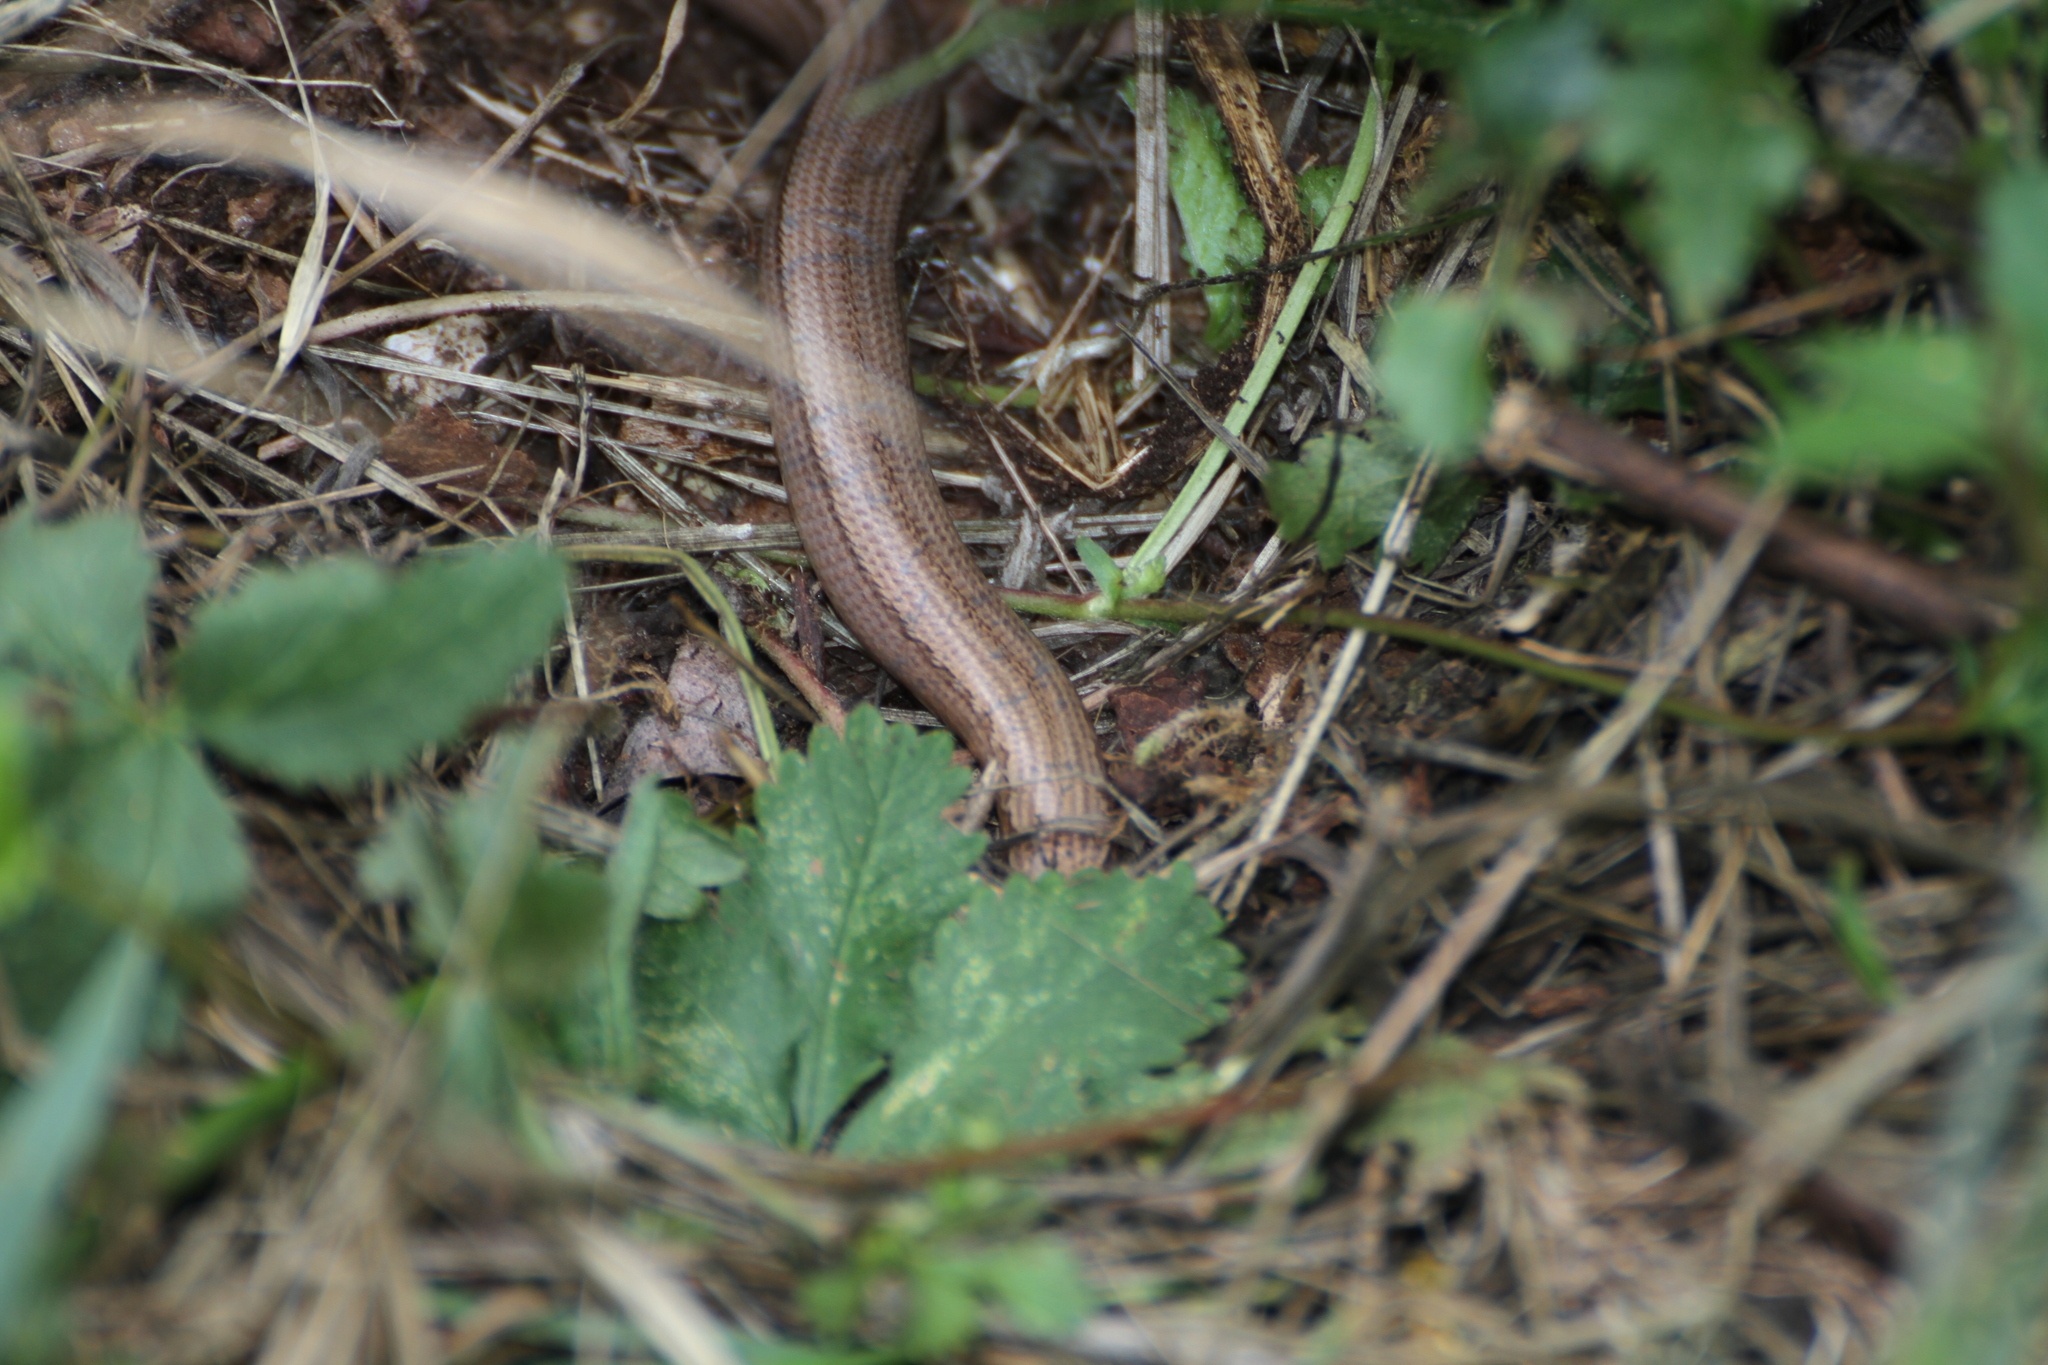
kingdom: Animalia
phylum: Chordata
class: Squamata
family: Anguidae
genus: Anguis
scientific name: Anguis veronensis
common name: Italian slow worm
